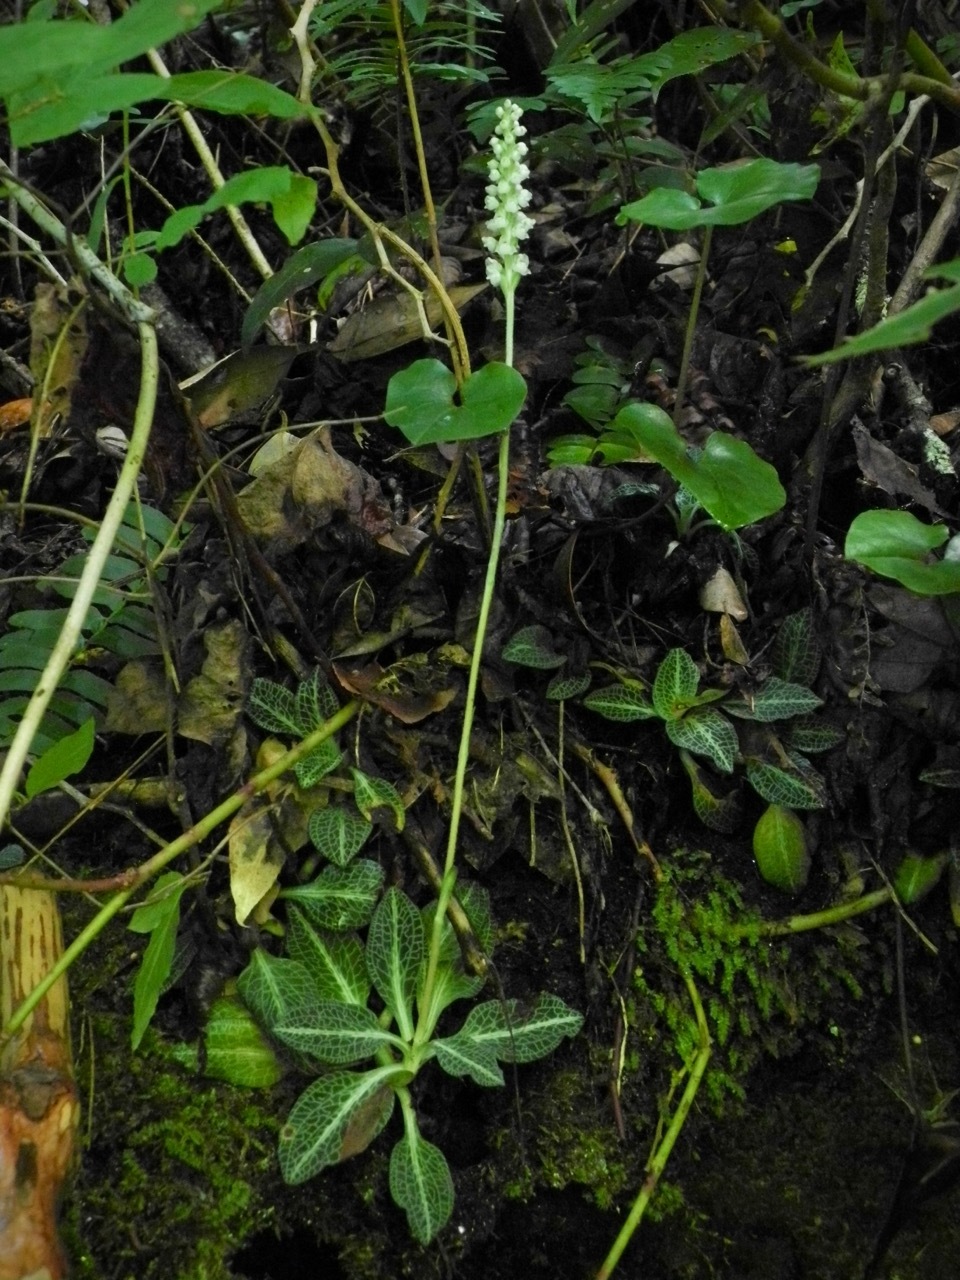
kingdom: Plantae
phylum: Tracheophyta
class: Liliopsida
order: Asparagales
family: Orchidaceae
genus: Goodyera
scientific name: Goodyera pubescens
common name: Downy rattlesnake-plantain
